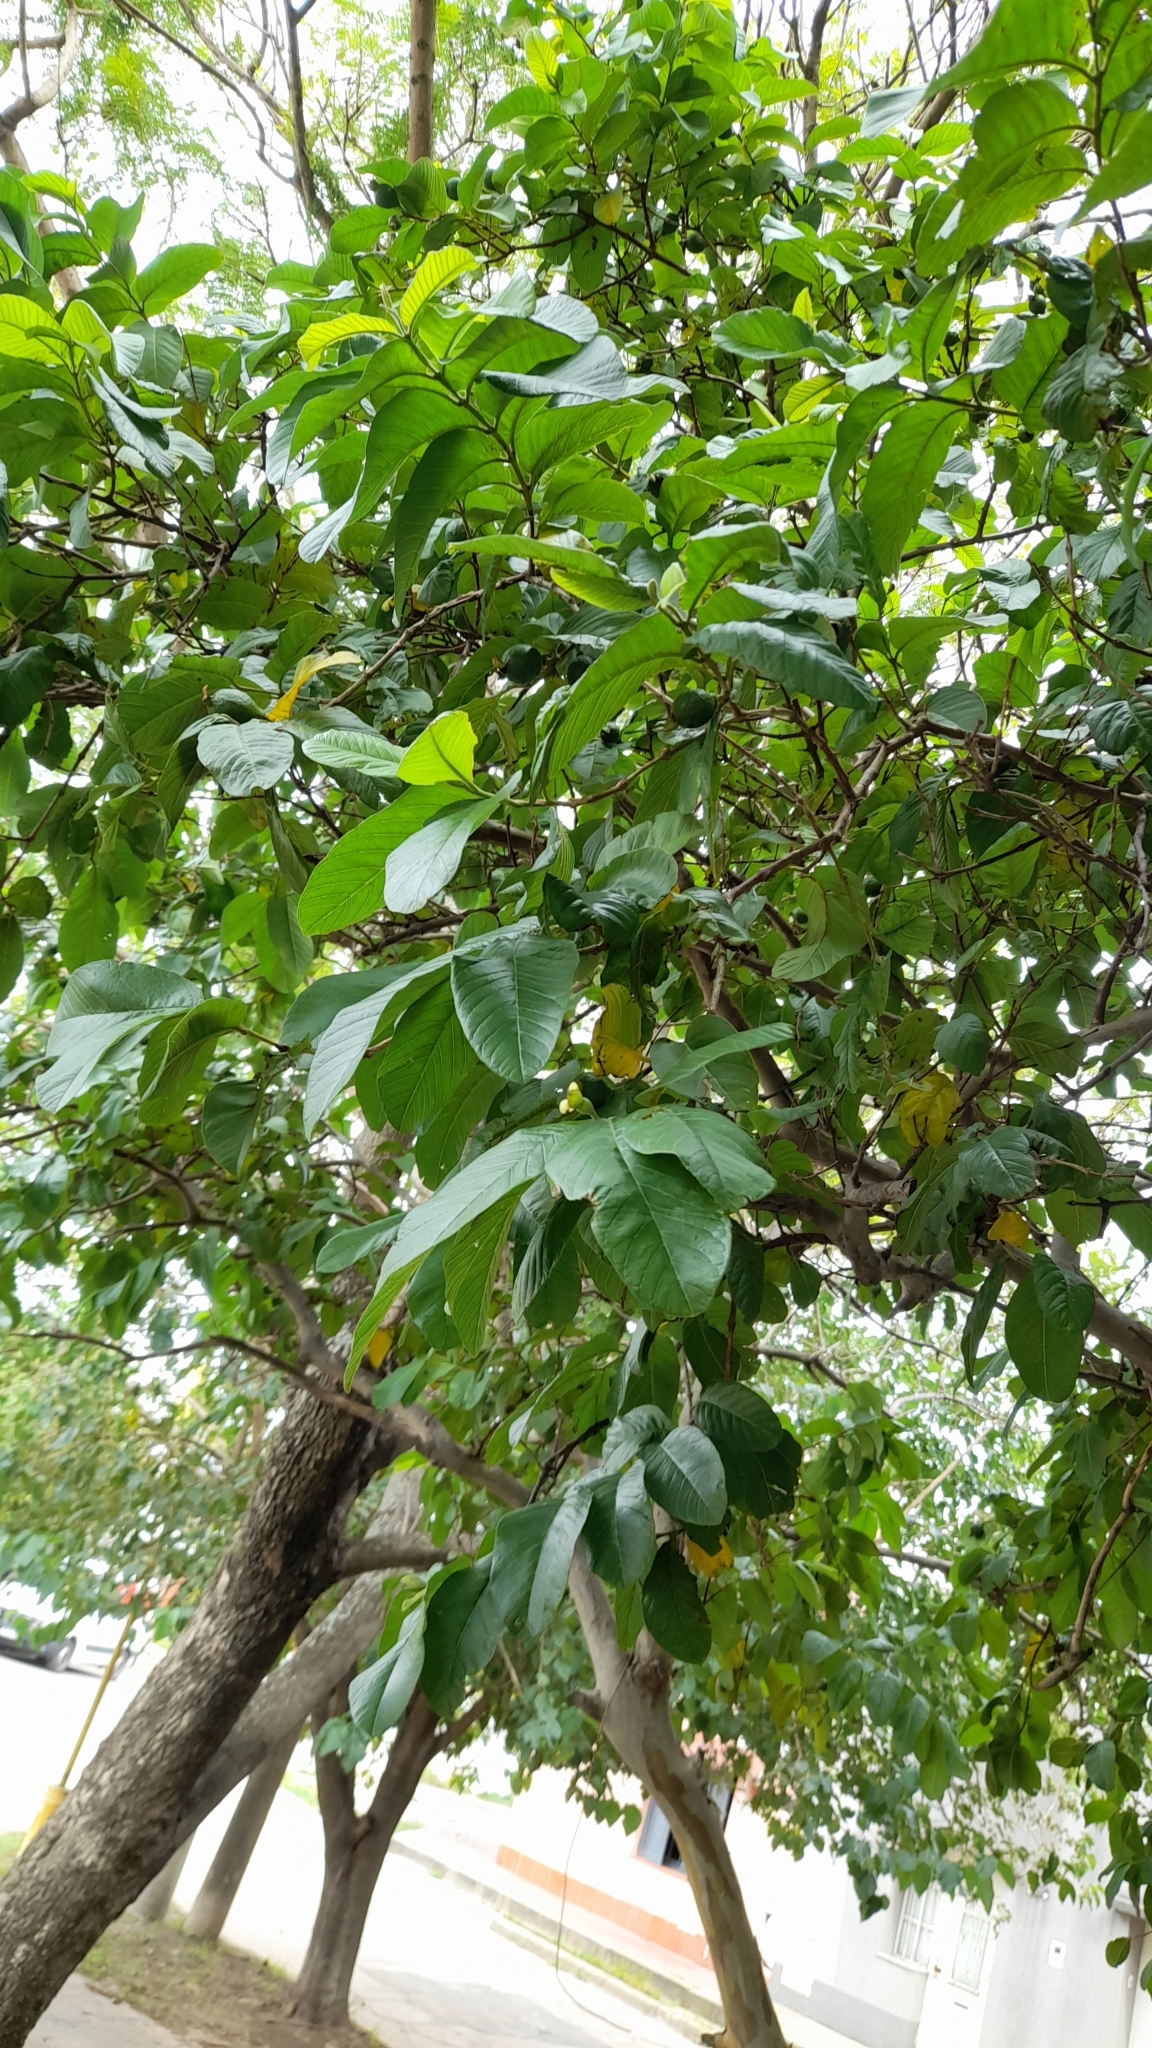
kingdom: Plantae
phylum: Tracheophyta
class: Magnoliopsida
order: Myrtales
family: Myrtaceae
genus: Psidium
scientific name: Psidium guajava
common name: Guava
